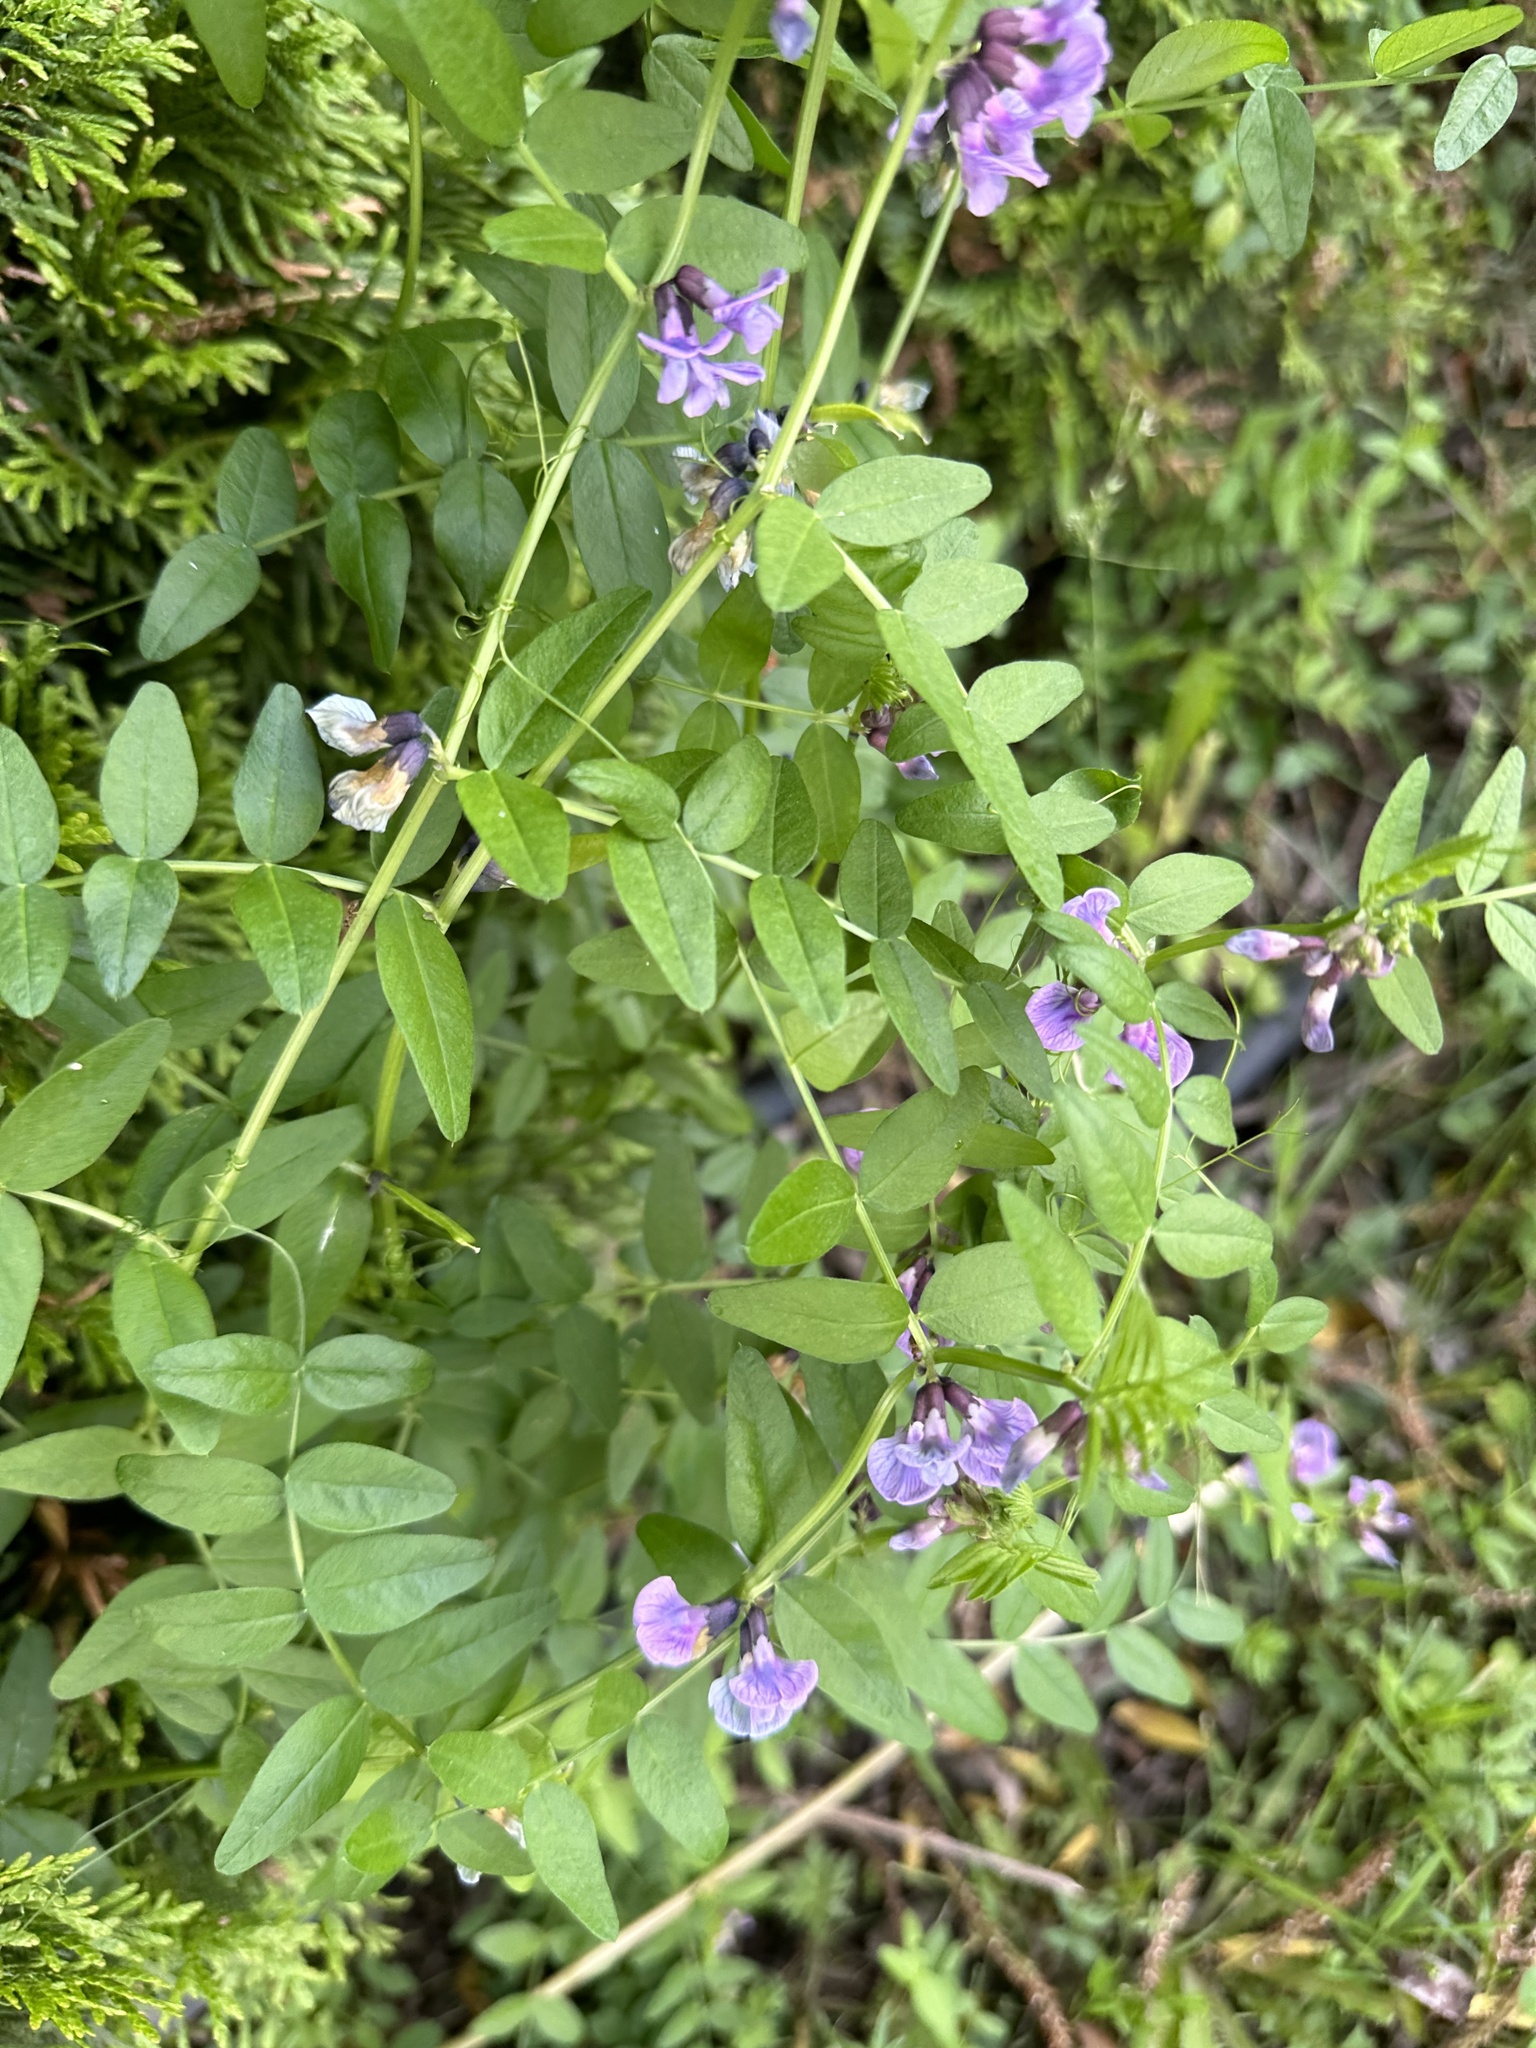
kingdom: Plantae
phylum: Tracheophyta
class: Magnoliopsida
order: Fabales
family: Fabaceae
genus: Vicia
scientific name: Vicia sepium
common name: Bush vetch
